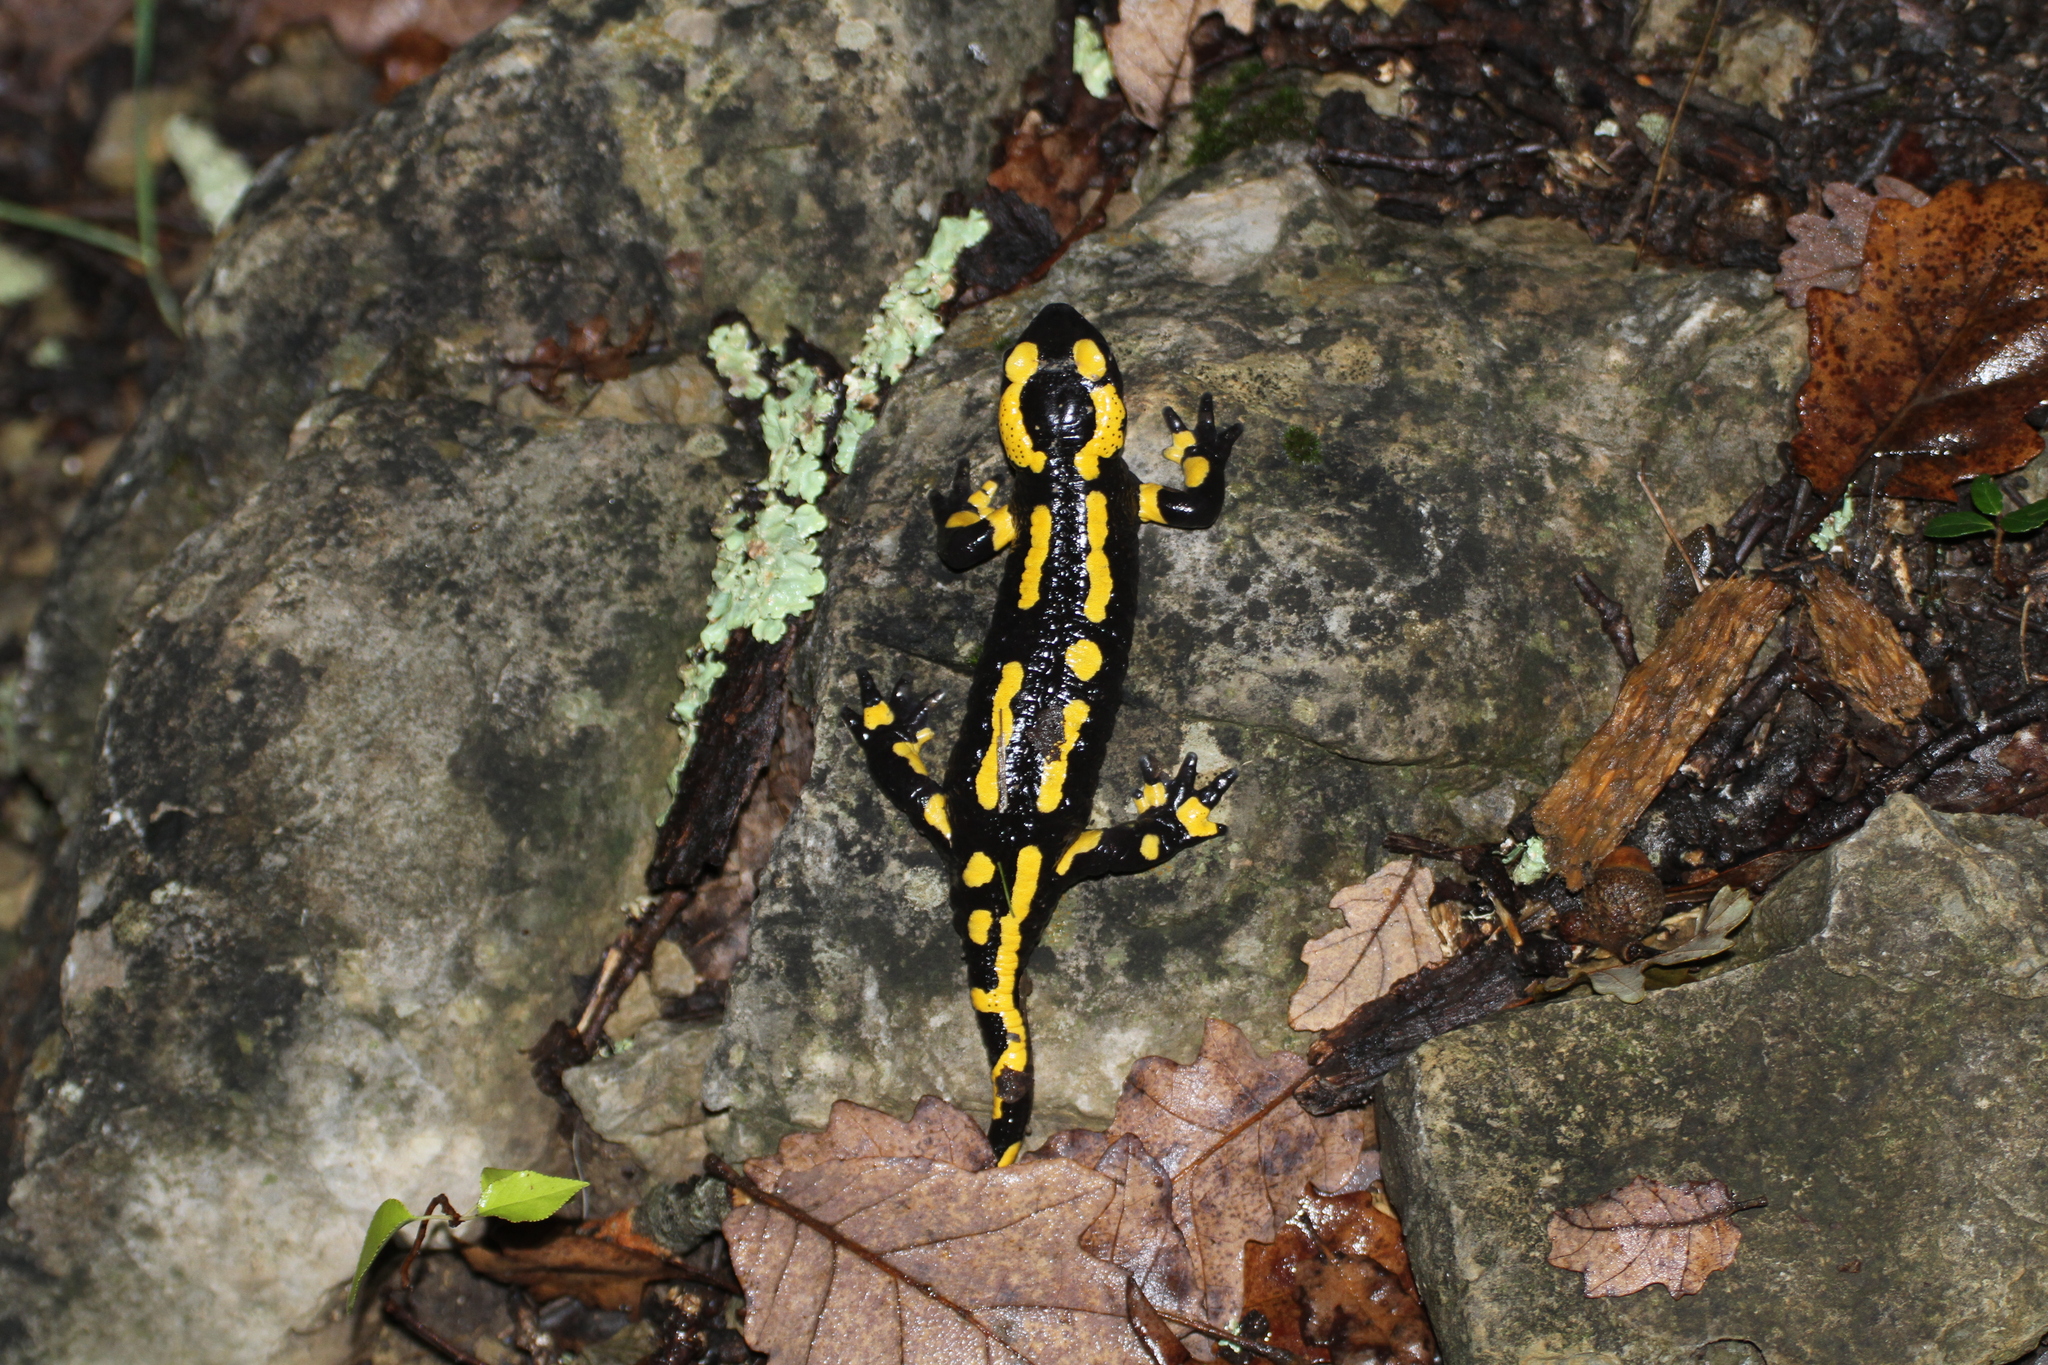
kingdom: Animalia
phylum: Chordata
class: Amphibia
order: Caudata
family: Salamandridae
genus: Salamandra
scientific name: Salamandra salamandra
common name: Fire salamander
